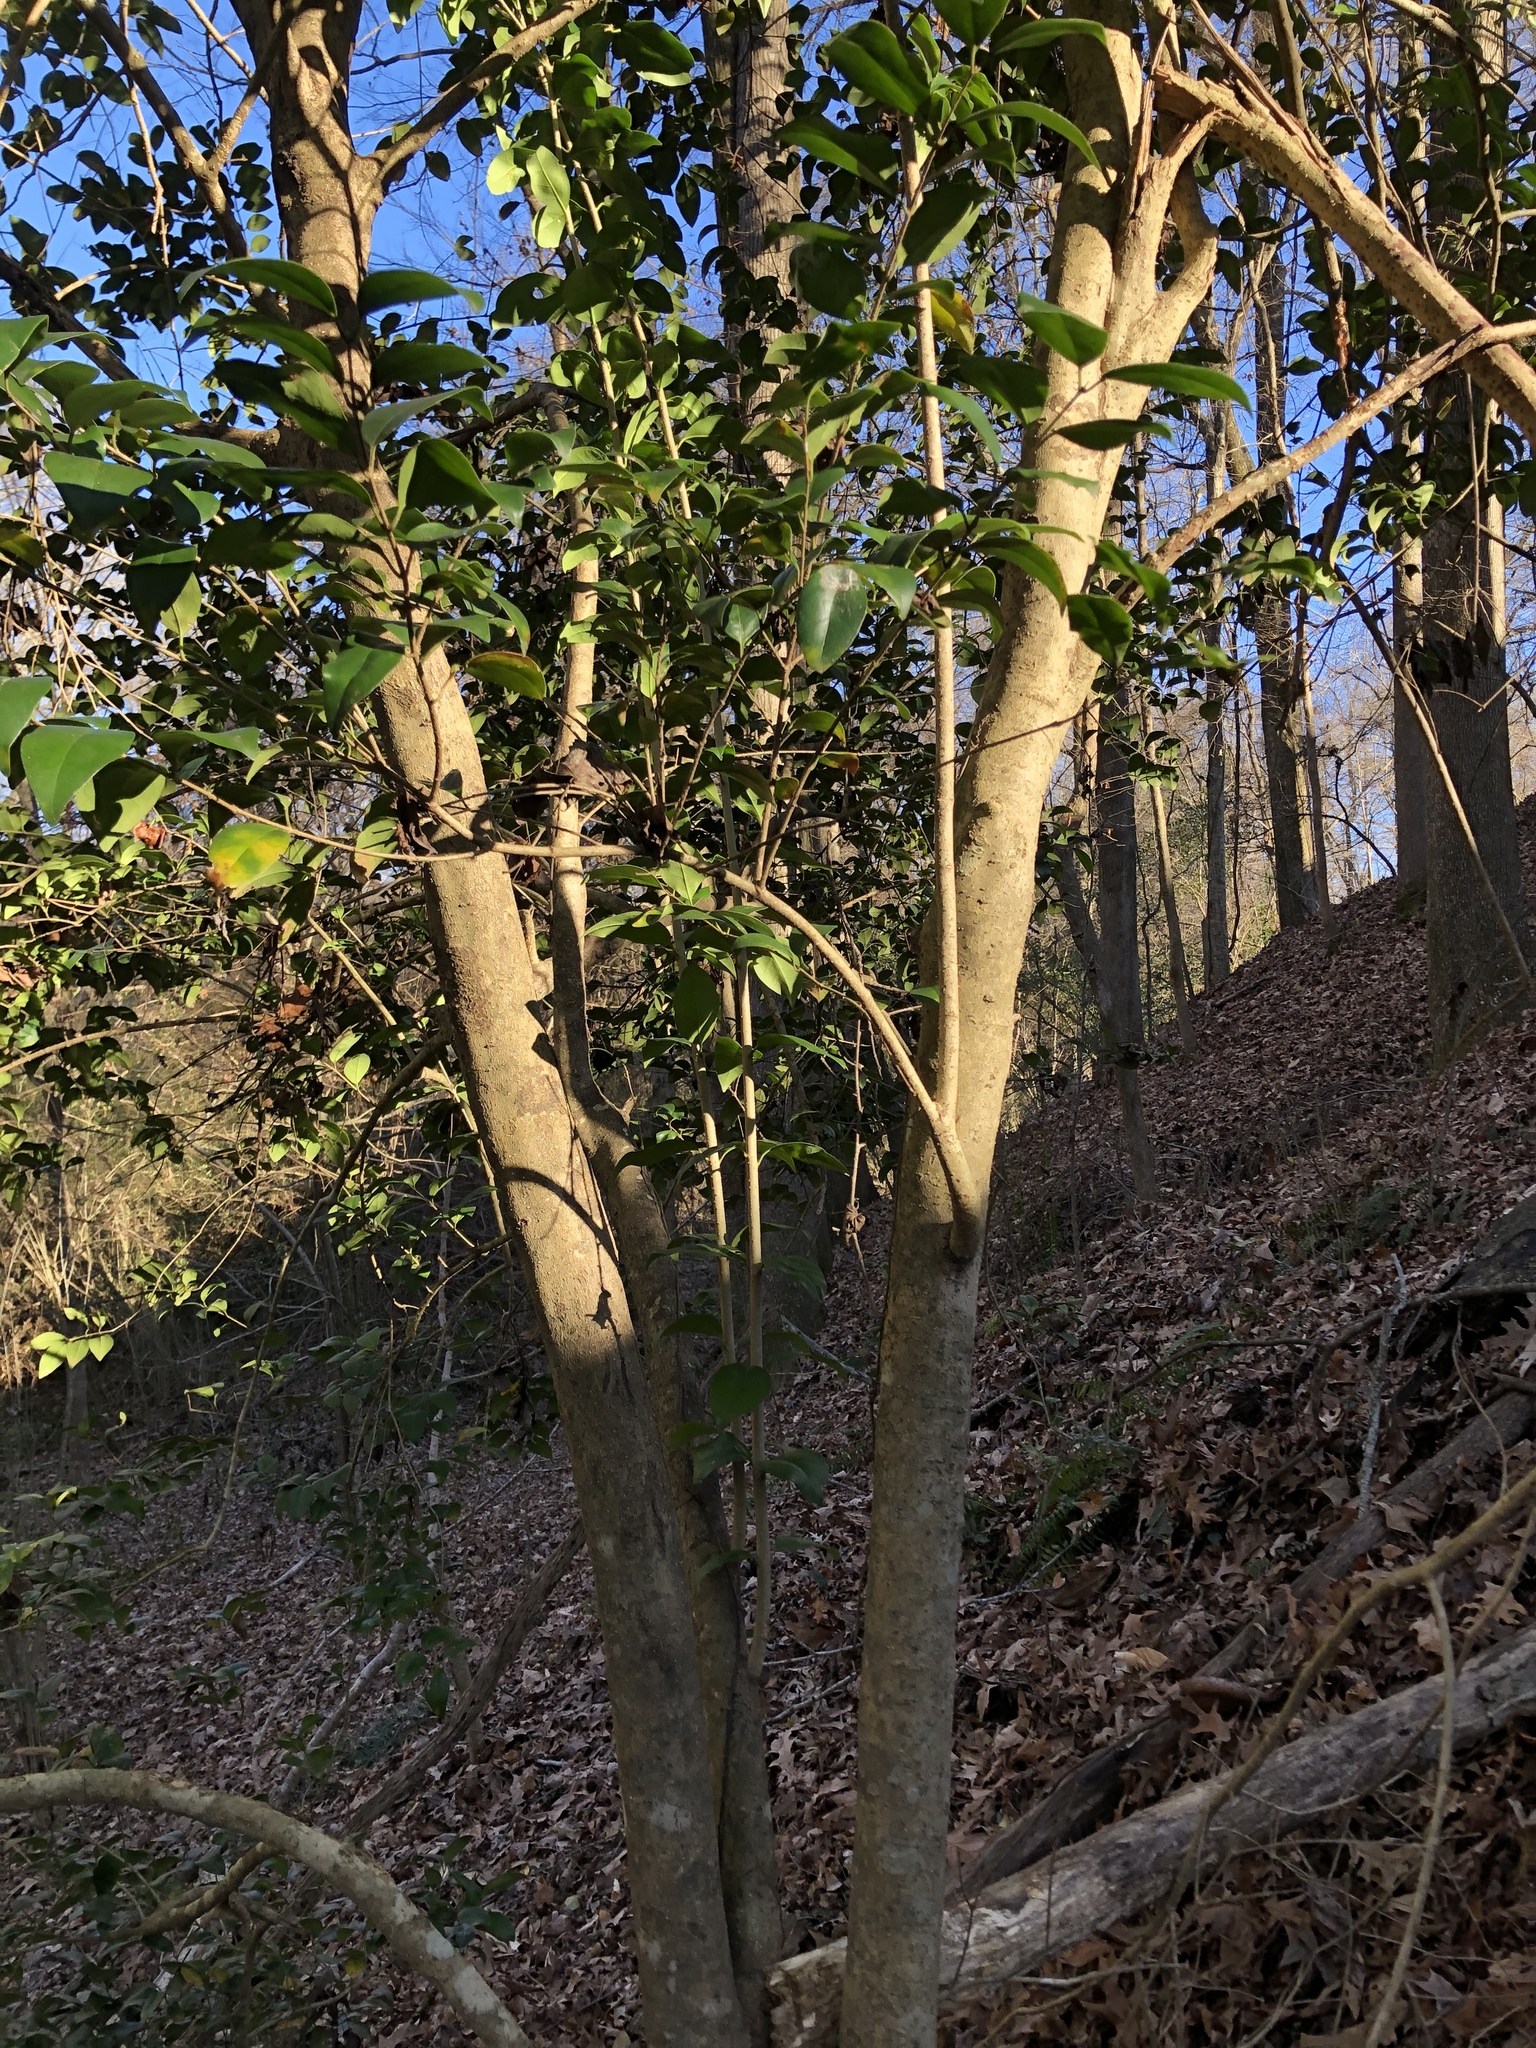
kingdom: Plantae
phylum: Tracheophyta
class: Magnoliopsida
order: Lamiales
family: Oleaceae
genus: Ligustrum
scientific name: Ligustrum lucidum
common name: Glossy privet
